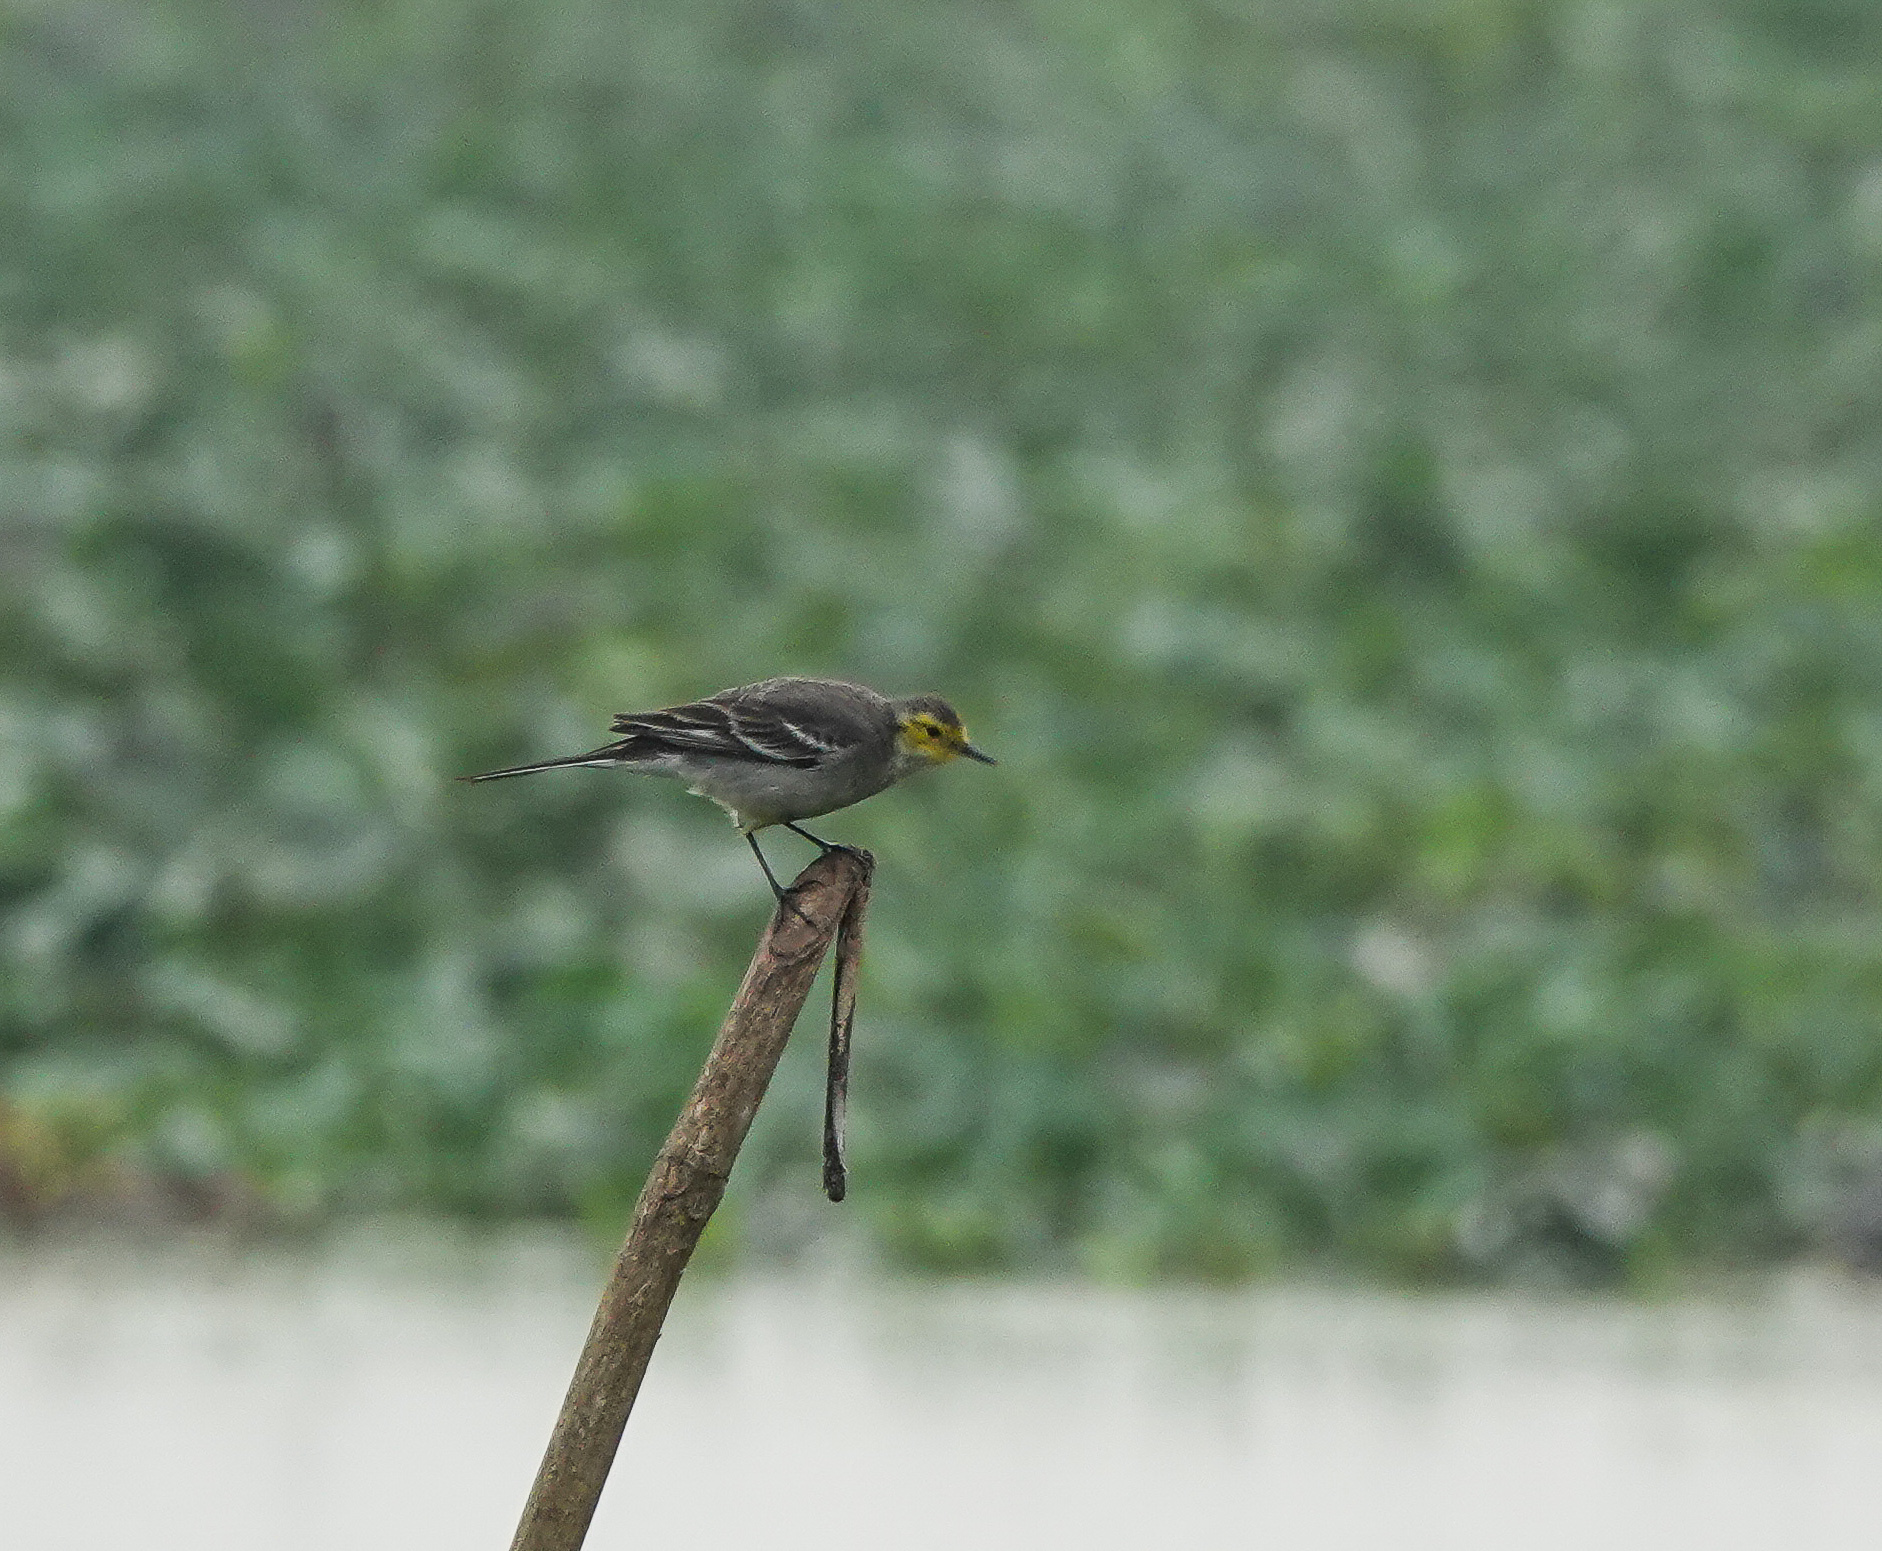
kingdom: Animalia
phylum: Chordata
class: Aves
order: Passeriformes
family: Motacillidae
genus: Motacilla
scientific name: Motacilla citreola
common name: Citrine wagtail
